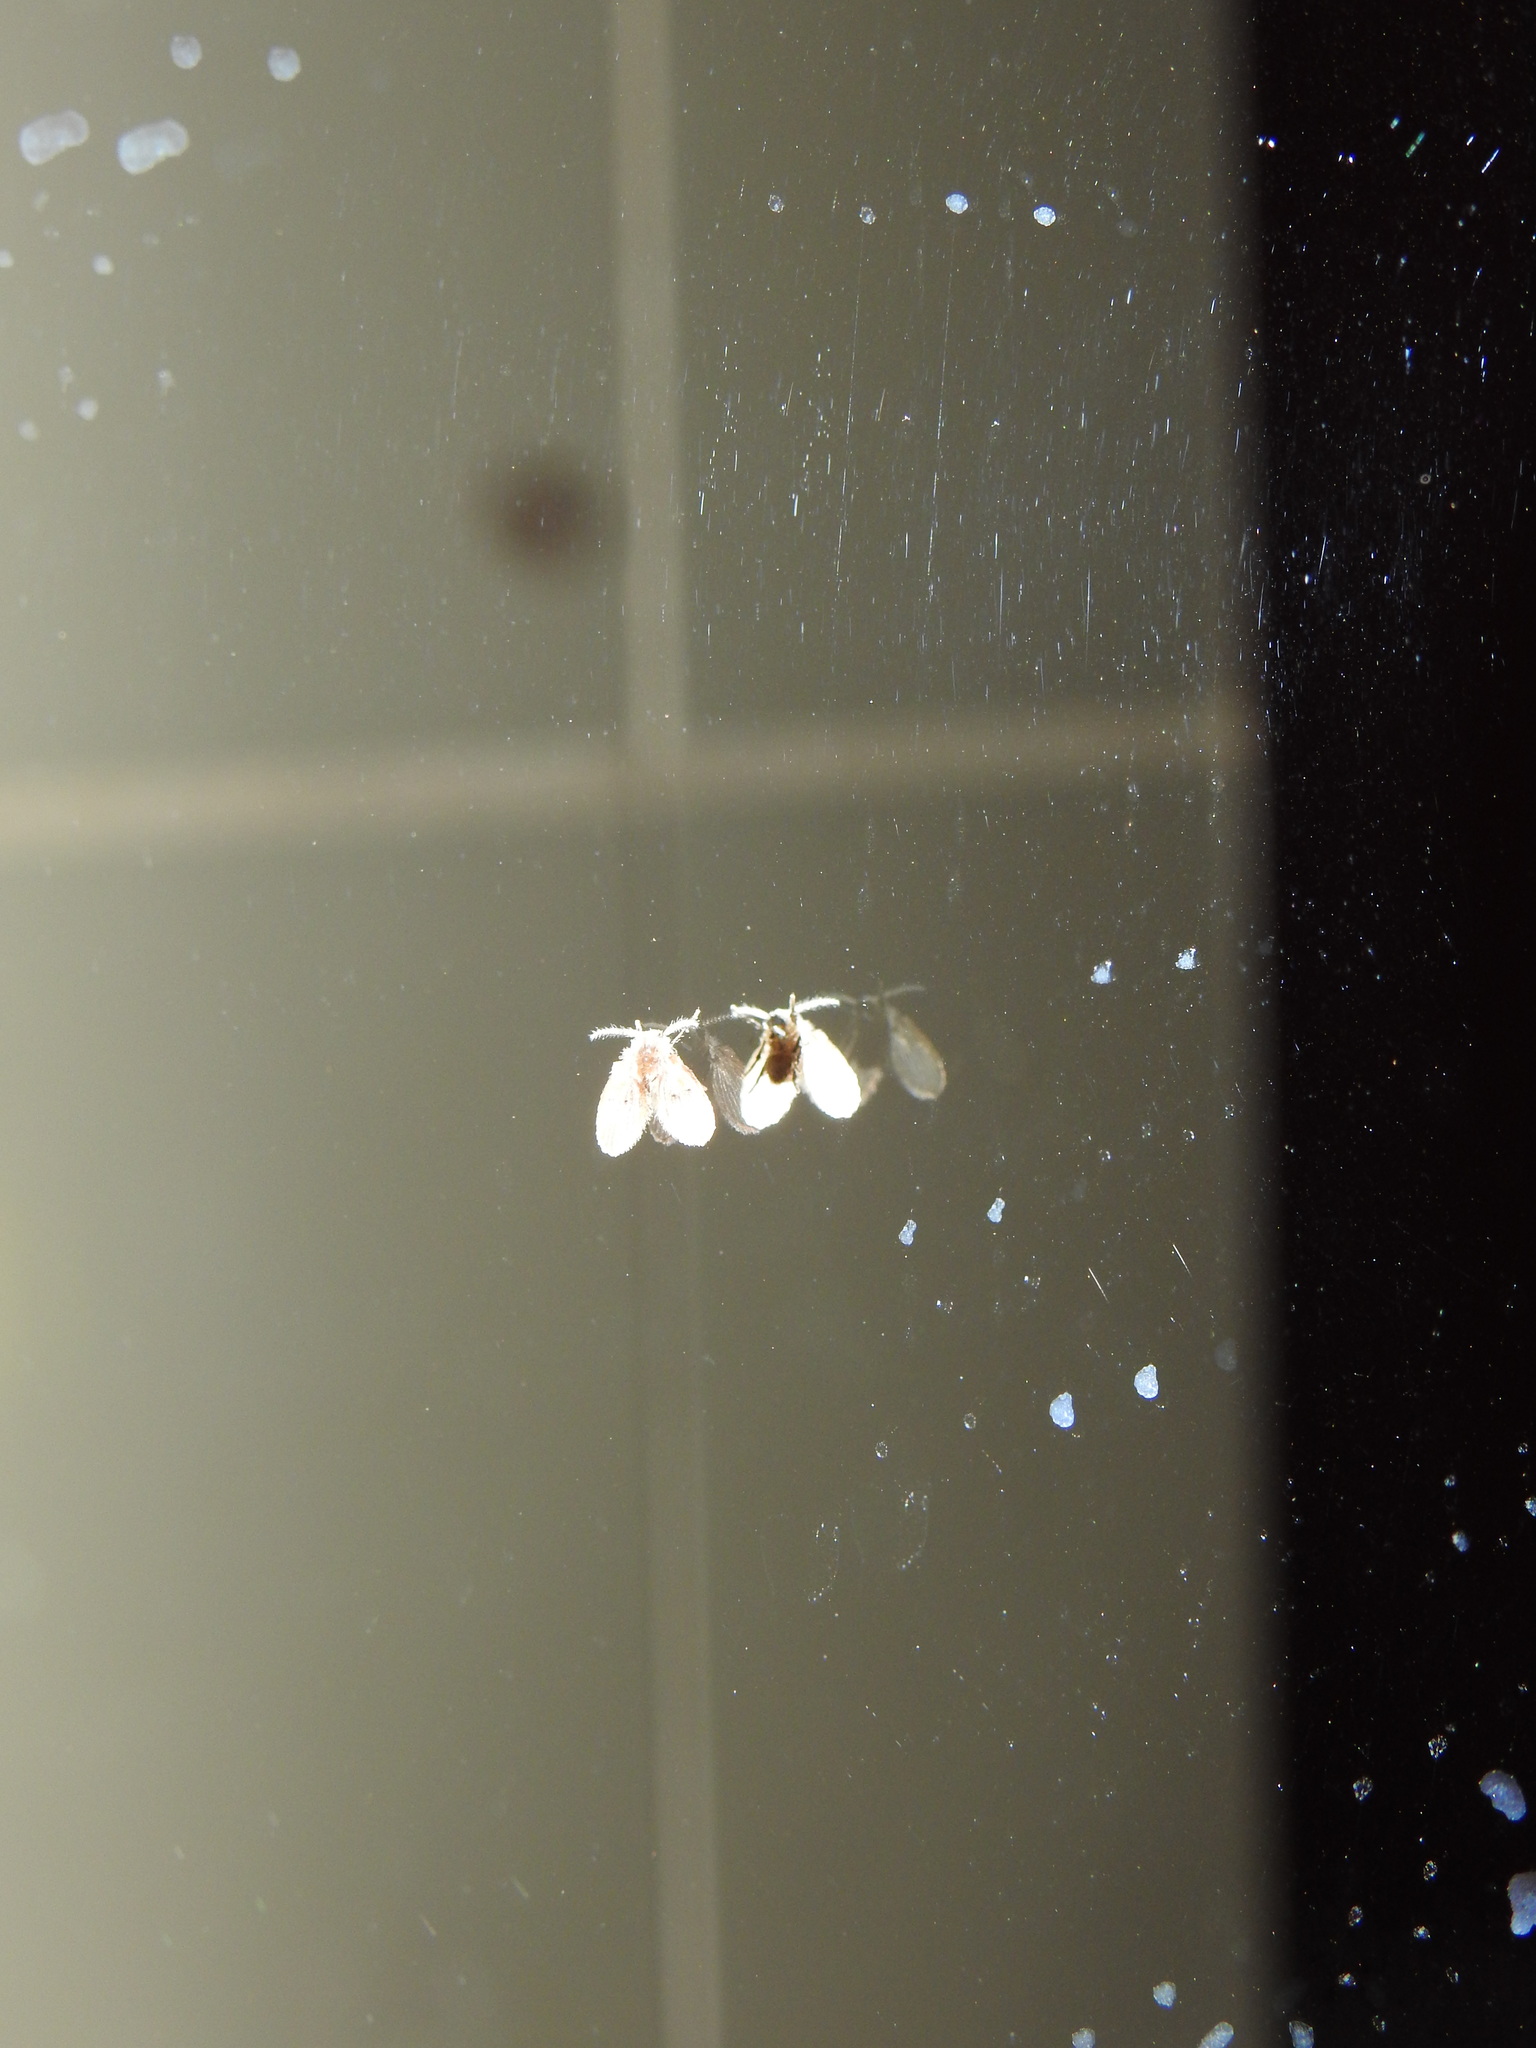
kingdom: Animalia
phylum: Arthropoda
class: Insecta
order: Diptera
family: Psychodidae
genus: Clogmia
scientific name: Clogmia albipunctatus
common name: White-spotted moth fly
